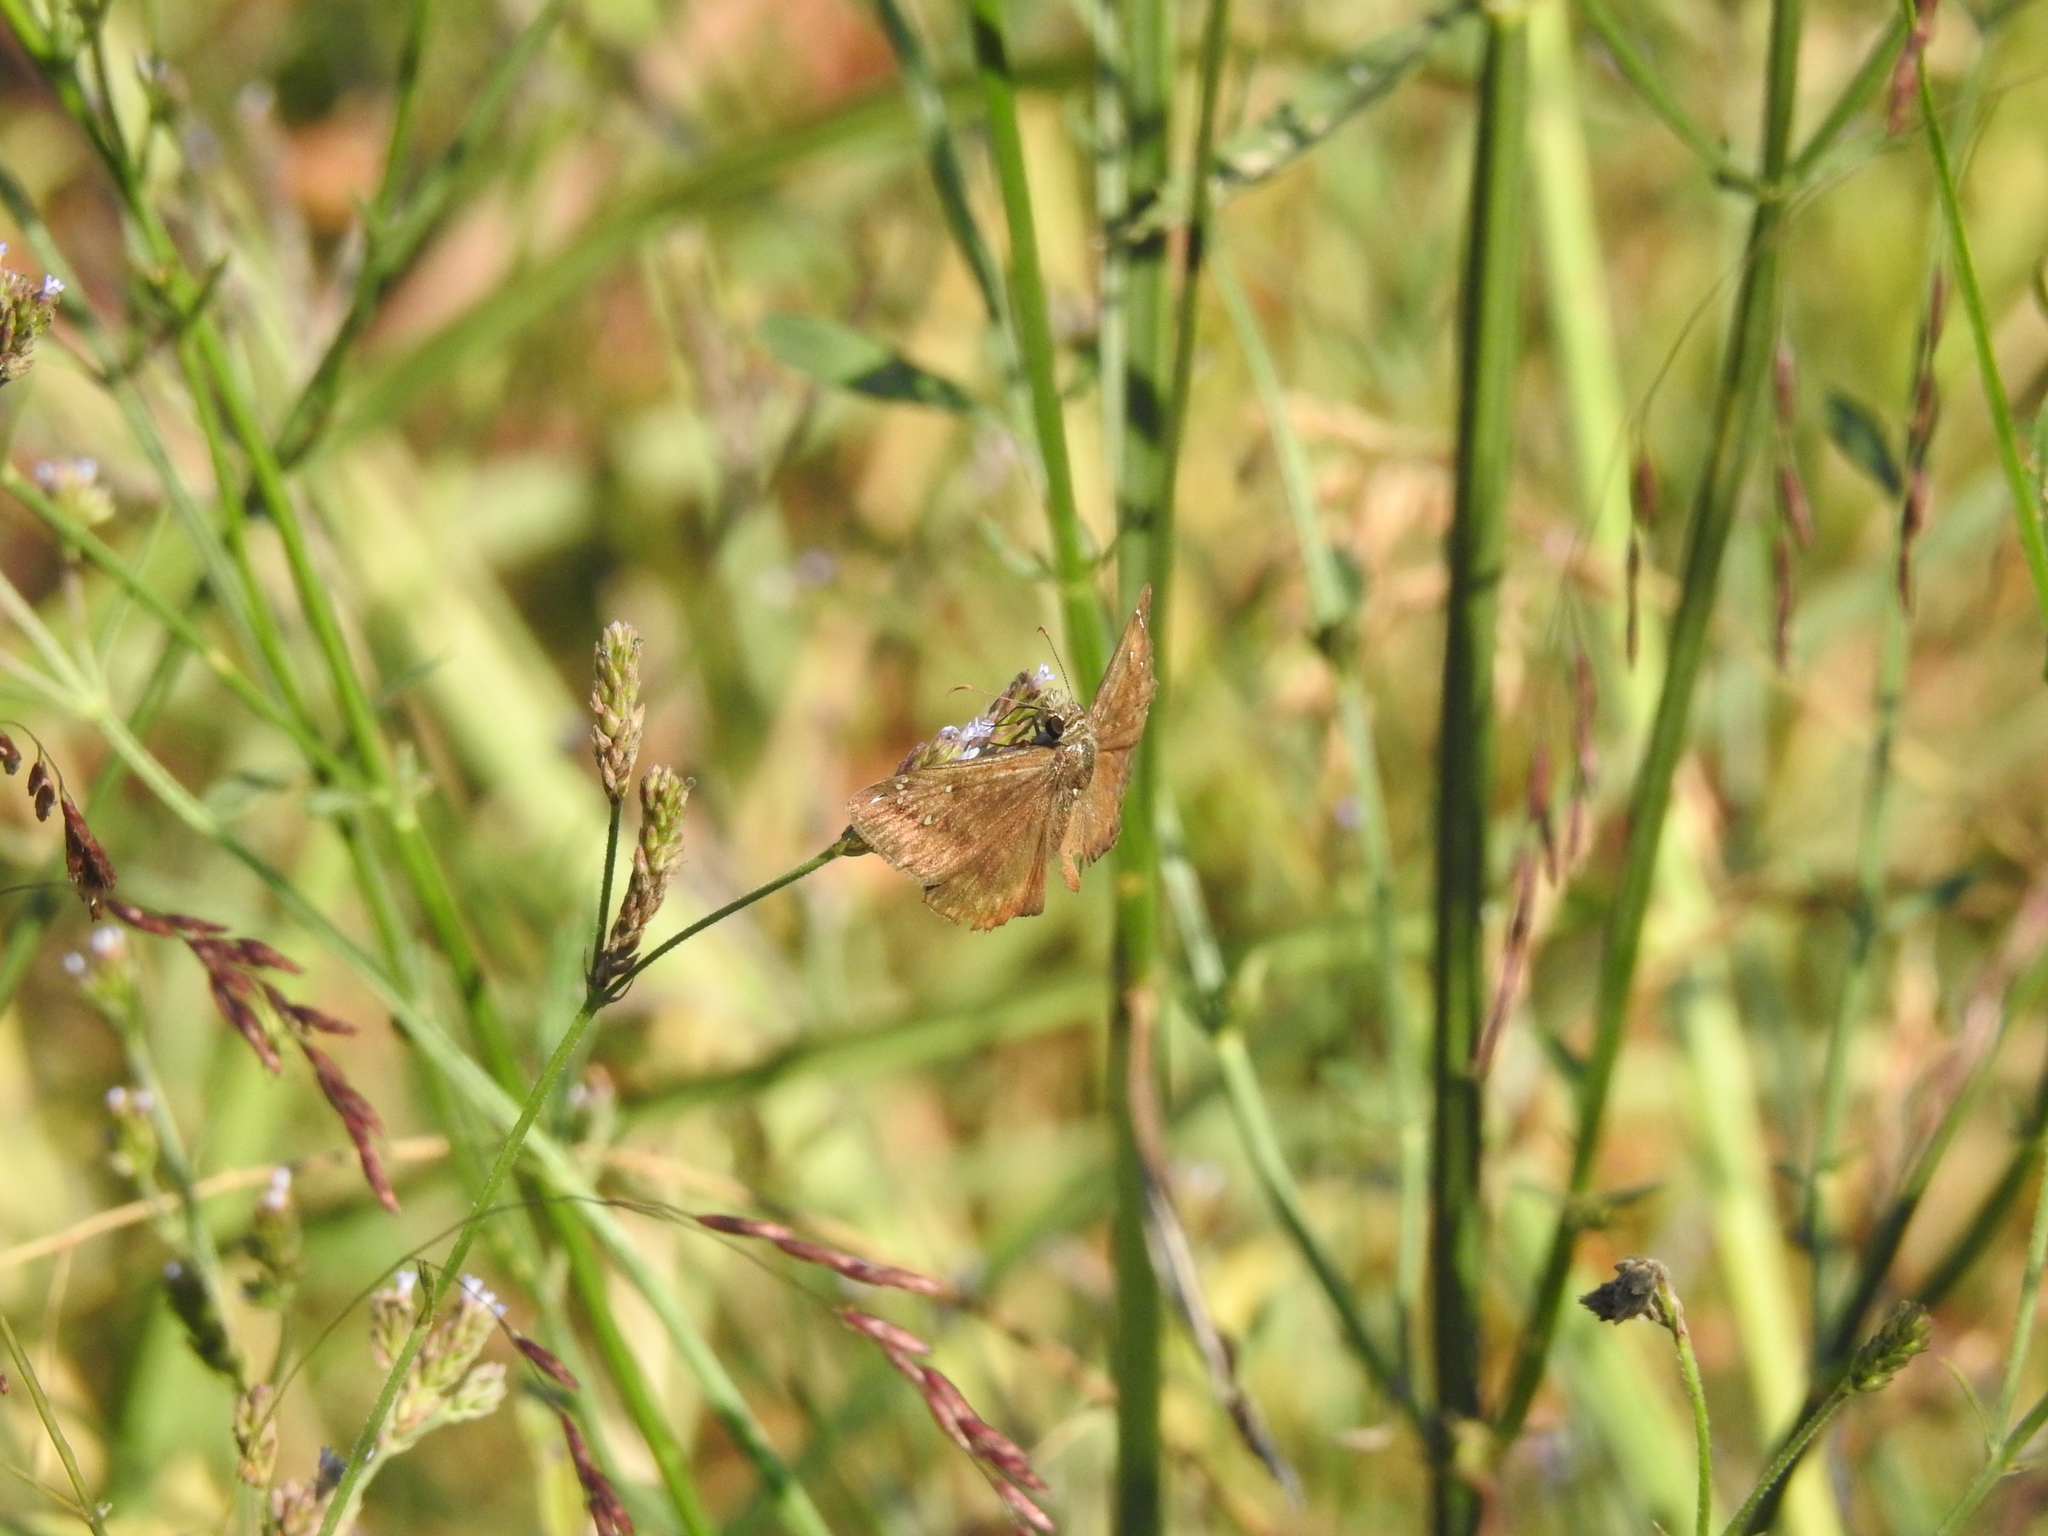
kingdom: Animalia
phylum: Arthropoda
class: Insecta
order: Lepidoptera
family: Hesperiidae
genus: Erynnis
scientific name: Erynnis horatius
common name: Horace's duskywing
